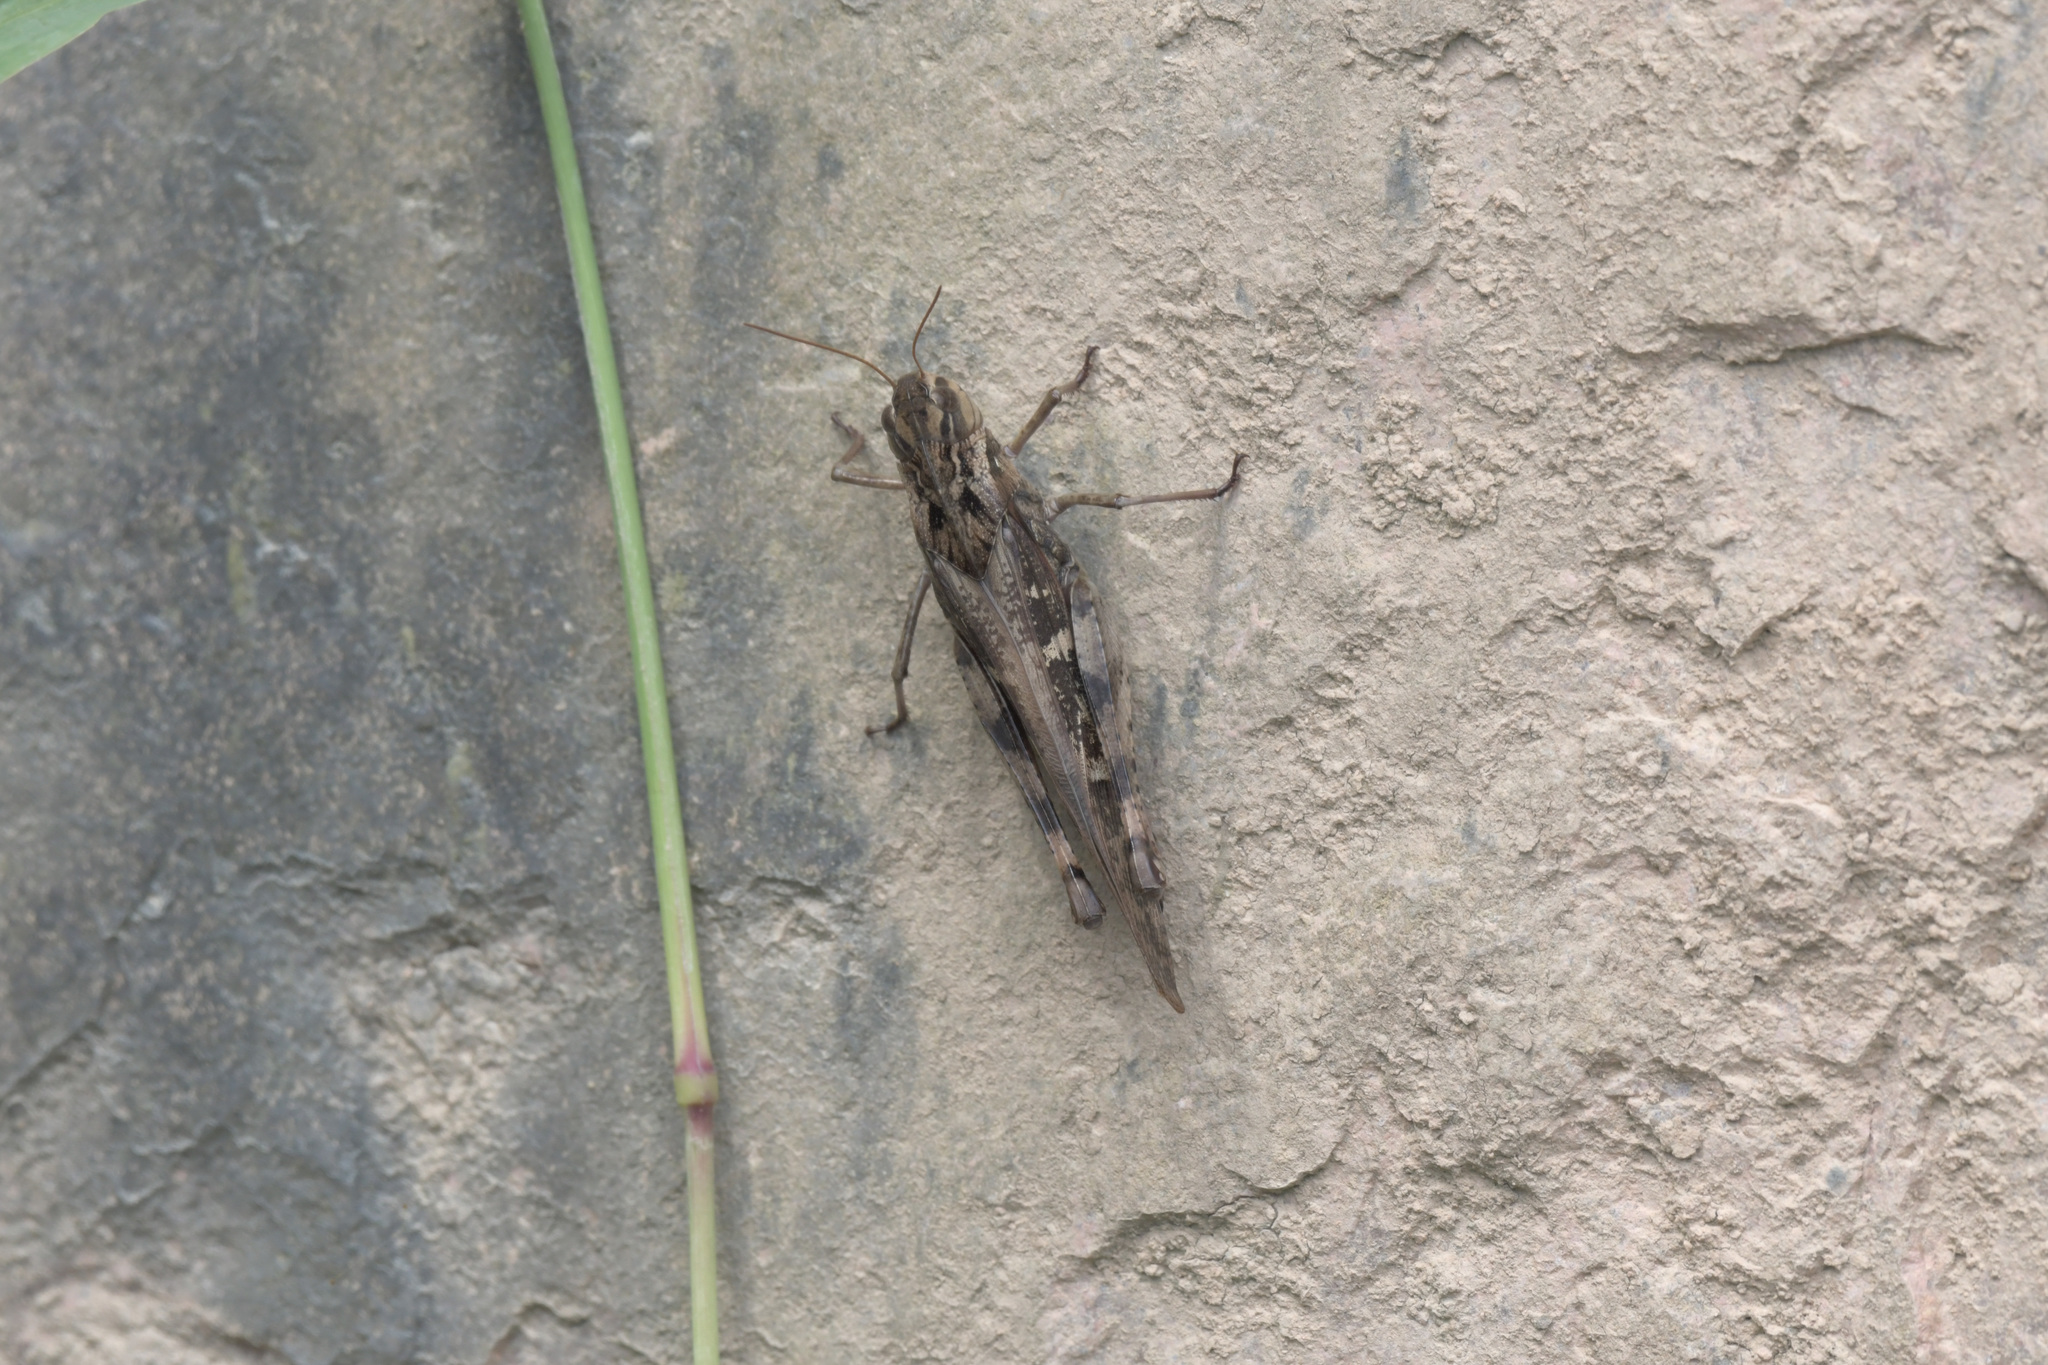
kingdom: Animalia
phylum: Arthropoda
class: Insecta
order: Orthoptera
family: Acrididae
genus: Gastrimargus
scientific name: Gastrimargus marmoratus
